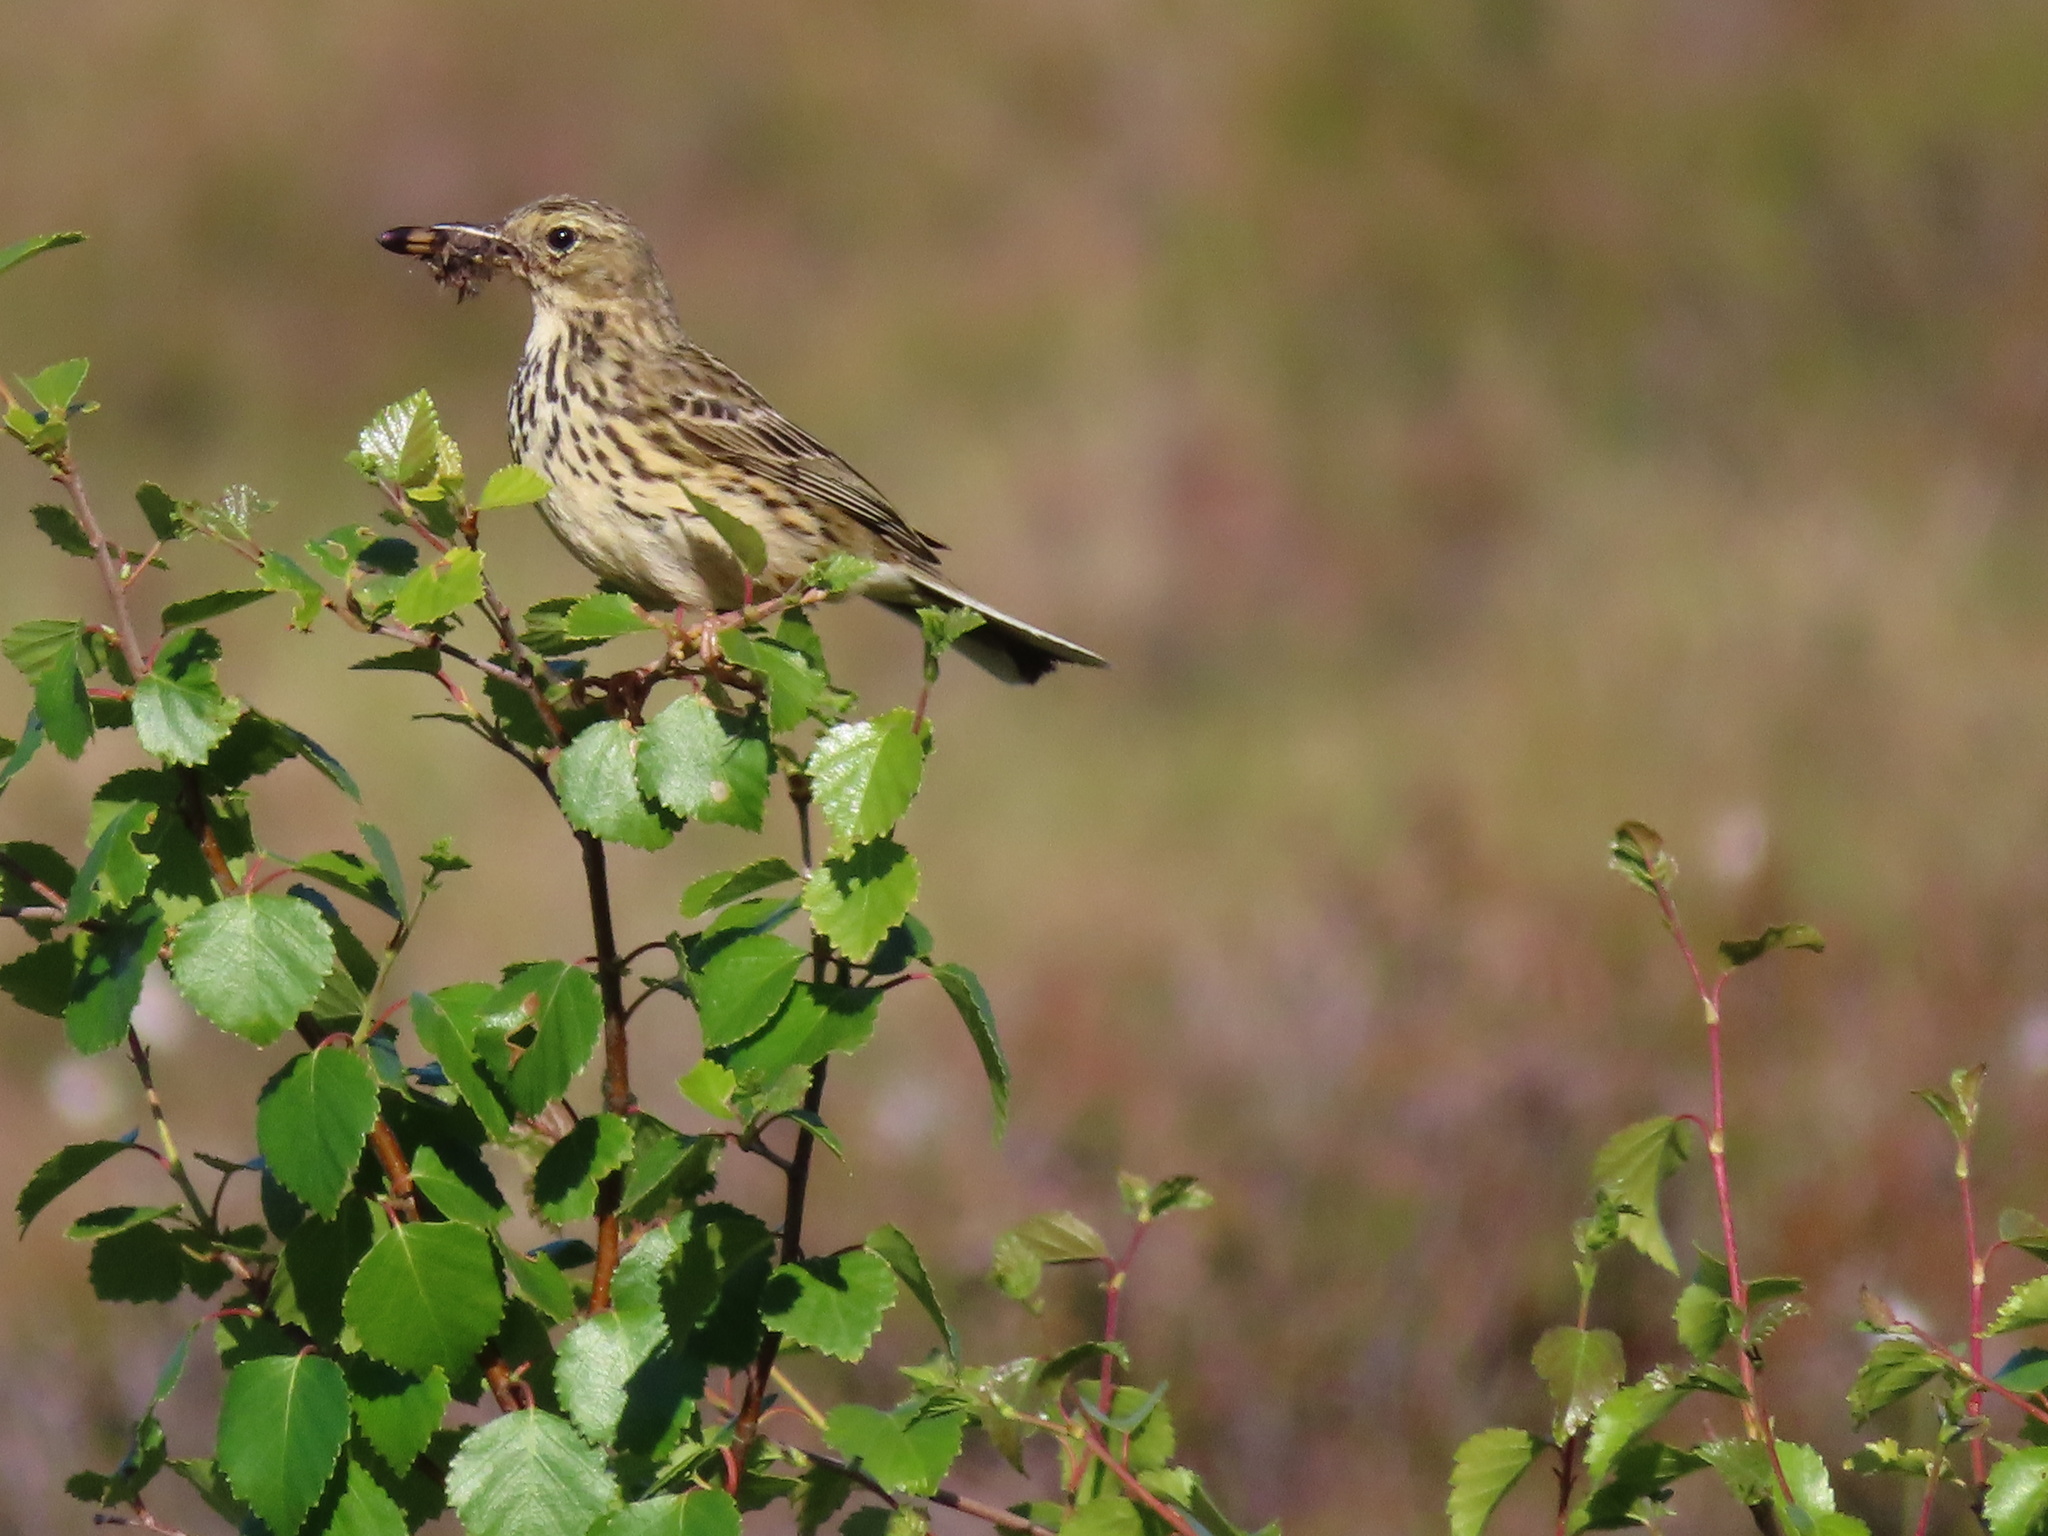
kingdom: Animalia
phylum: Chordata
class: Aves
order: Passeriformes
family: Motacillidae
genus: Anthus
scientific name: Anthus pratensis
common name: Meadow pipit
